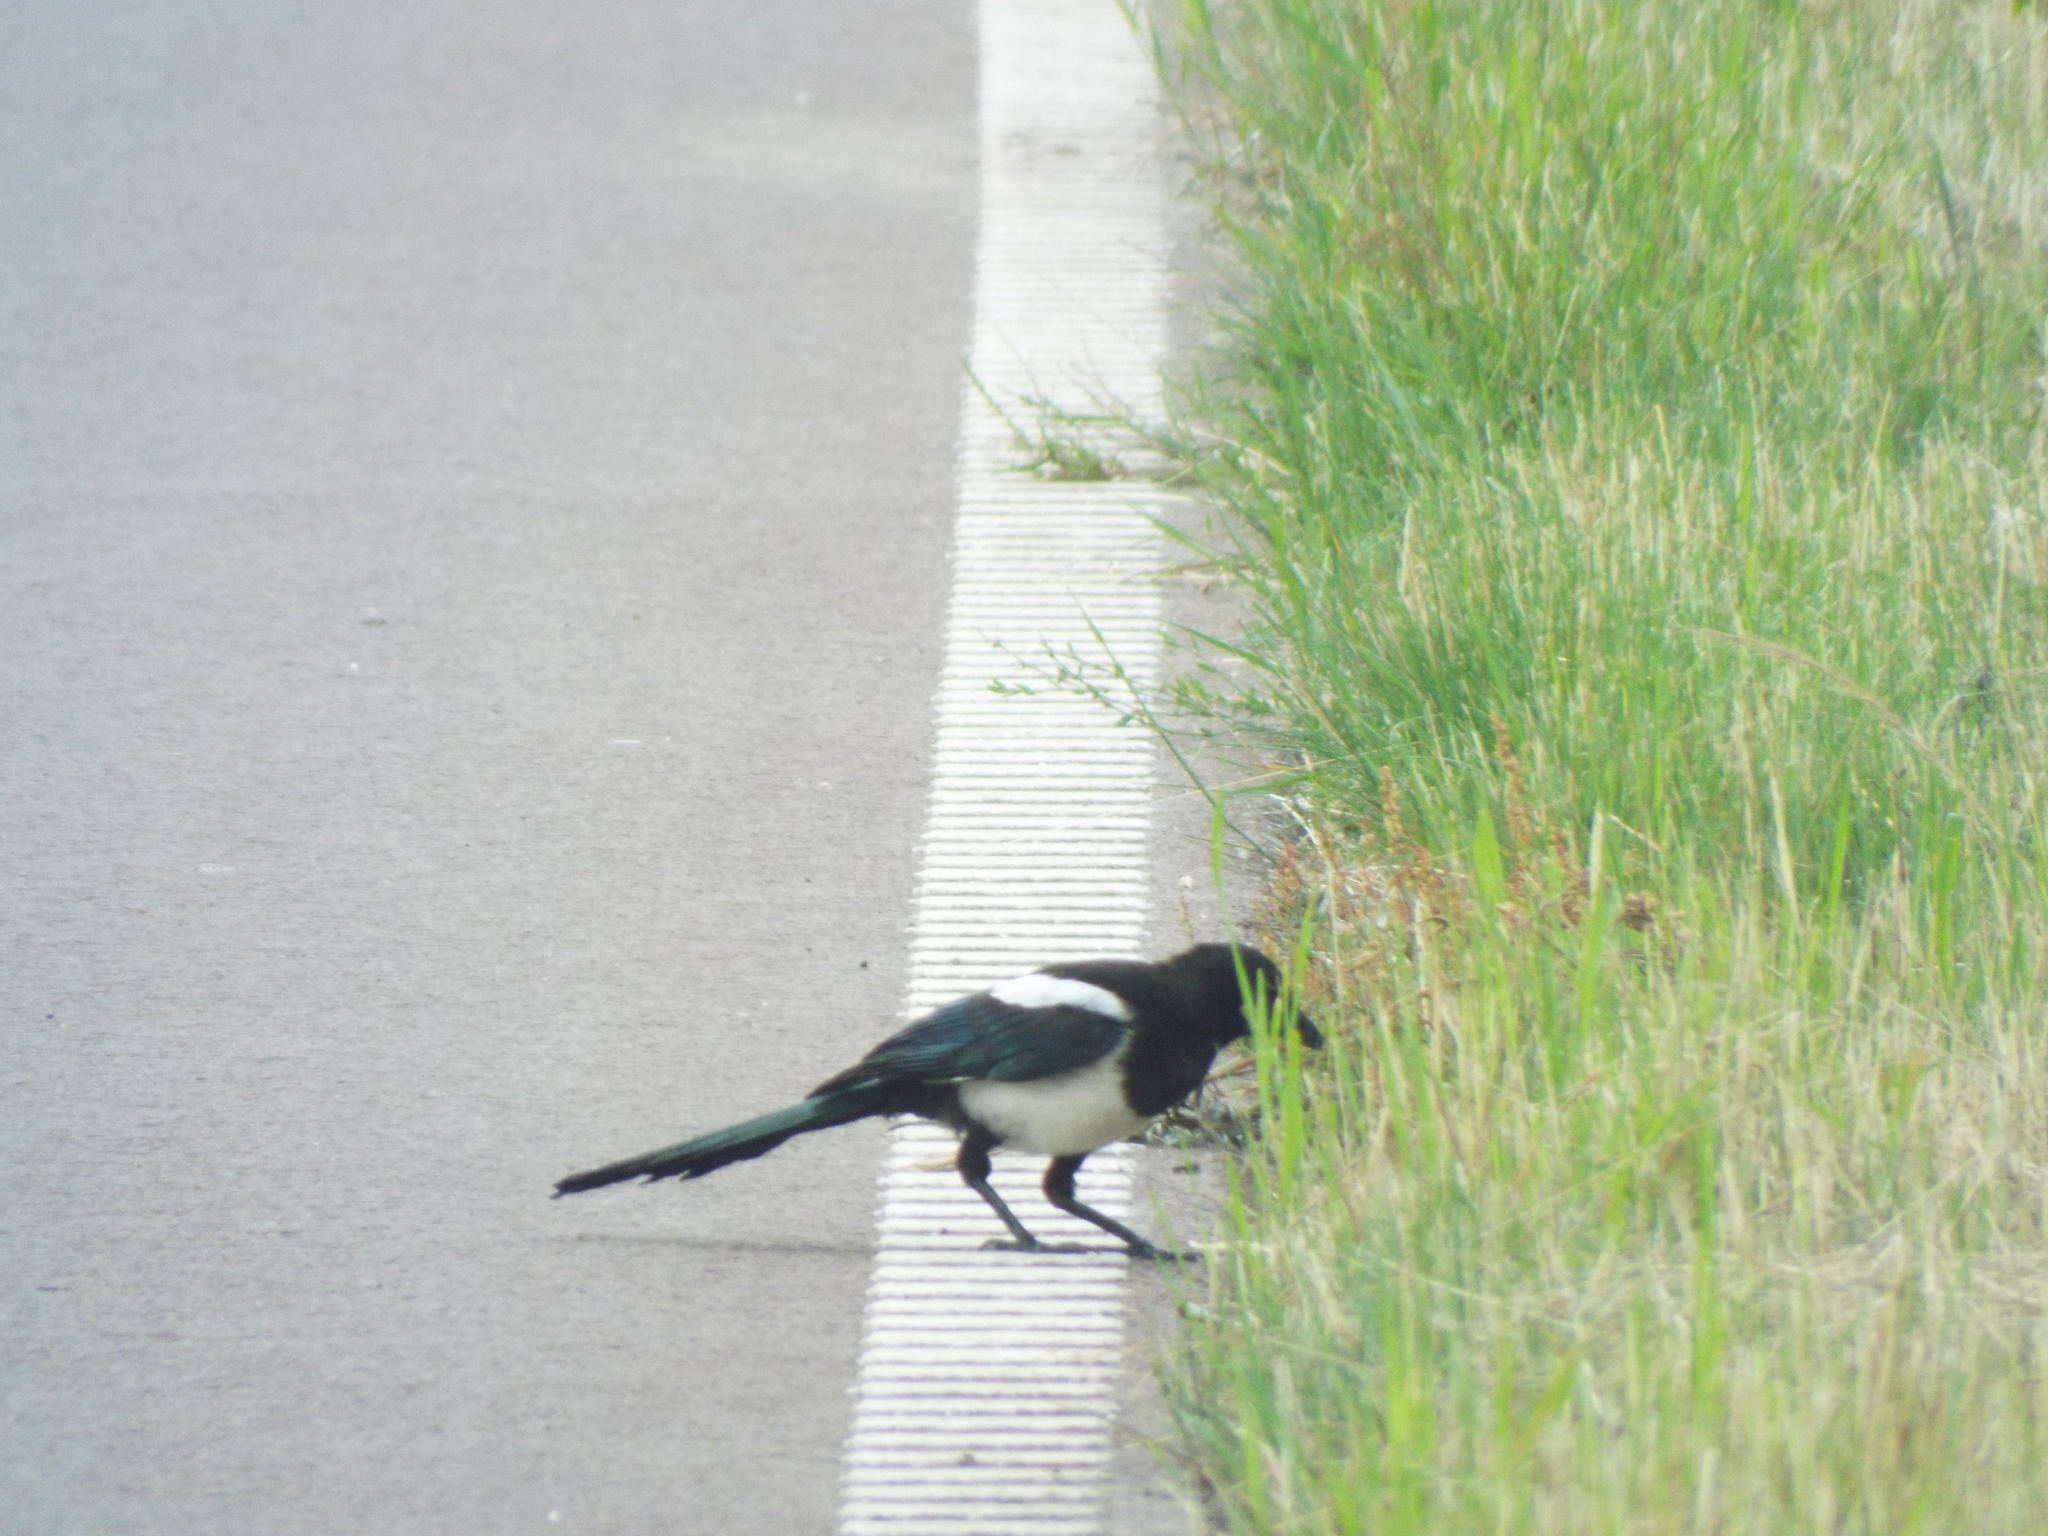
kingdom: Animalia
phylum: Chordata
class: Aves
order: Passeriformes
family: Corvidae
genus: Pica
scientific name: Pica pica
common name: Eurasian magpie
